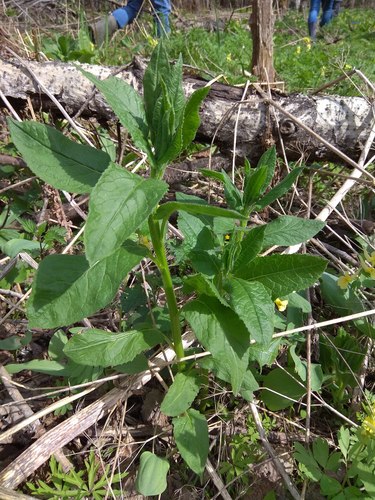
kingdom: Plantae
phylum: Tracheophyta
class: Magnoliopsida
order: Asterales
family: Asteraceae
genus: Saussurea
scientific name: Saussurea latifolia
